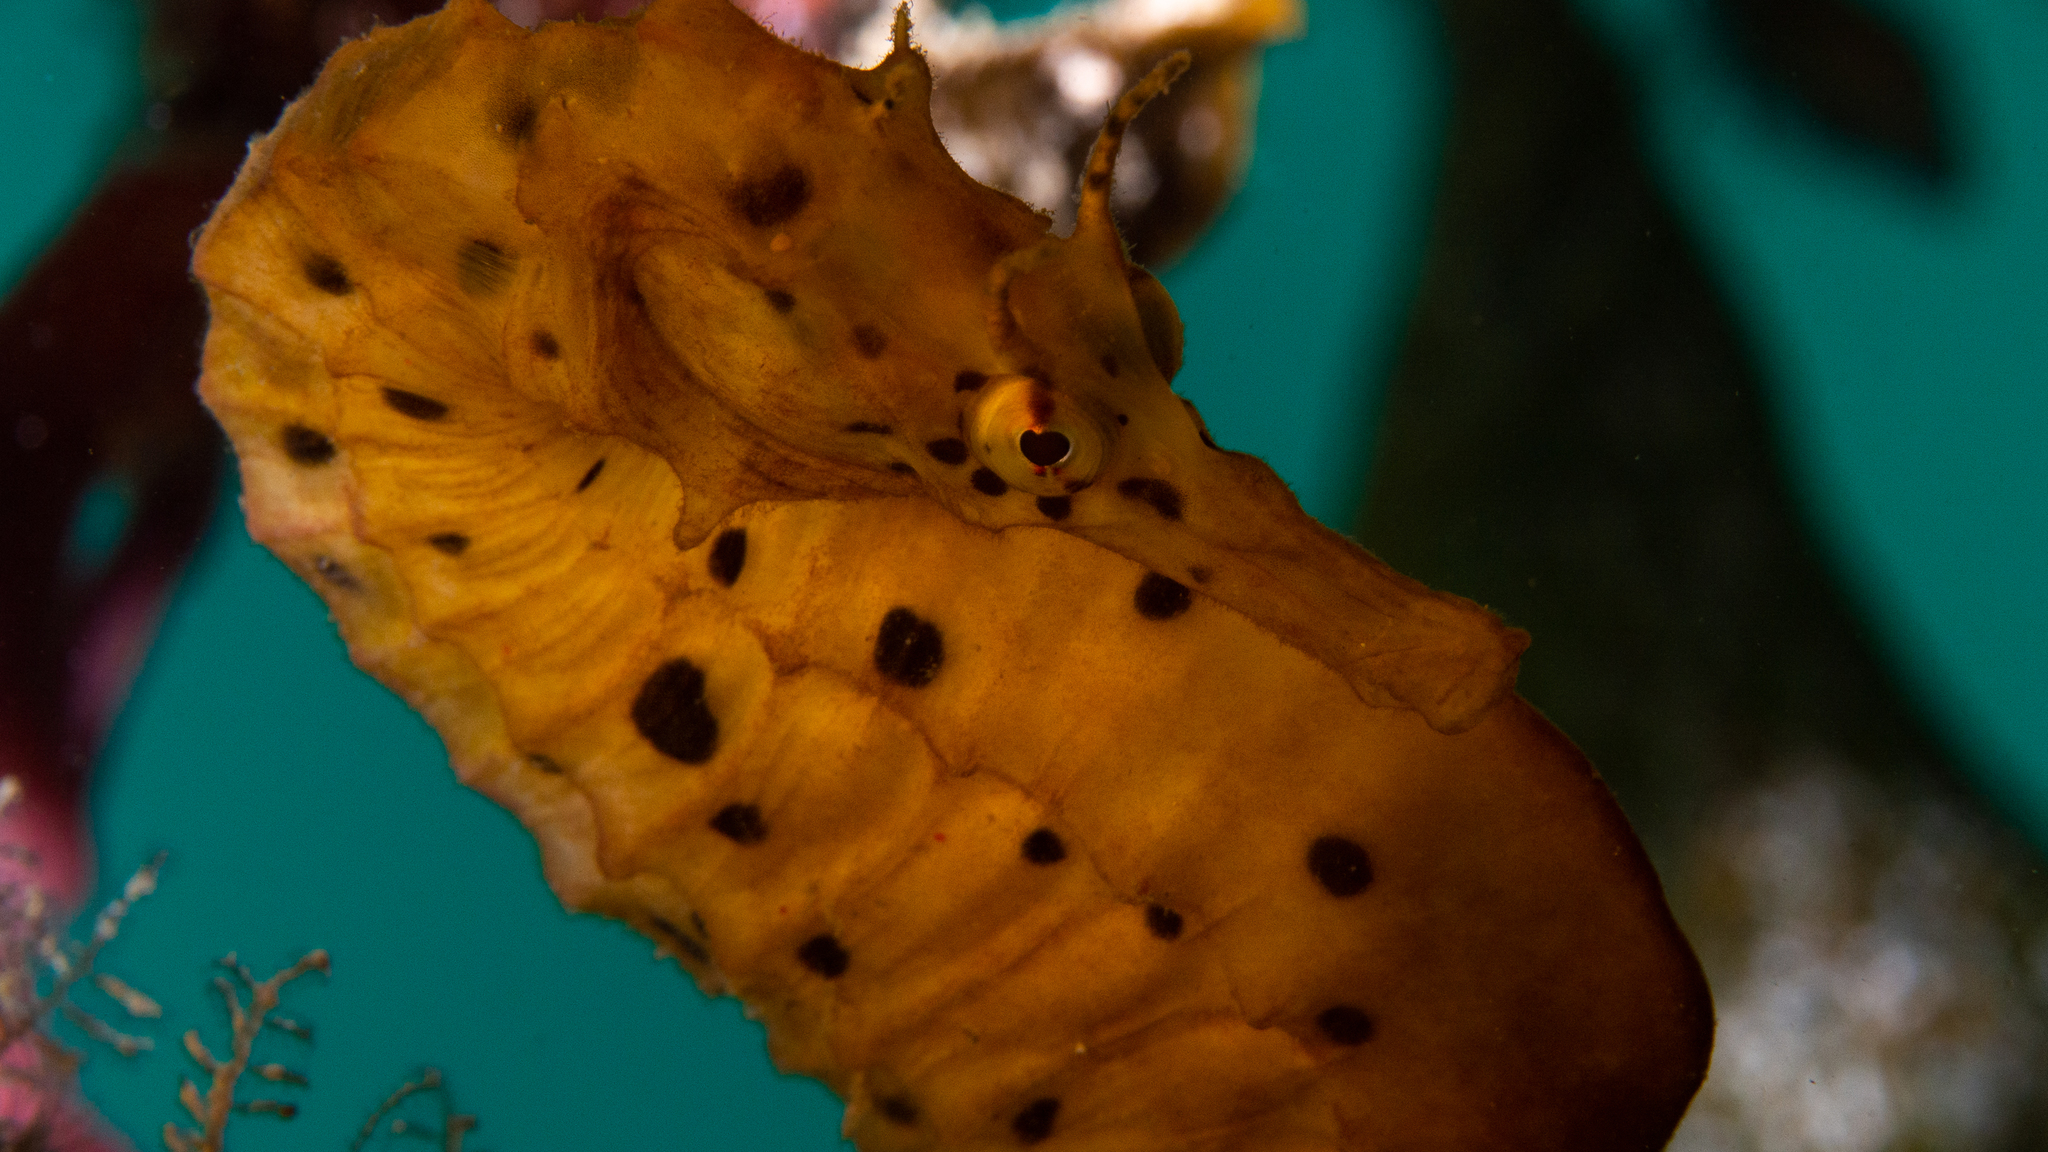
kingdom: Animalia
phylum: Chordata
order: Syngnathiformes
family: Syngnathidae
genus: Hippocampus
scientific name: Hippocampus abdominalis
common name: Big-belly seahorse
